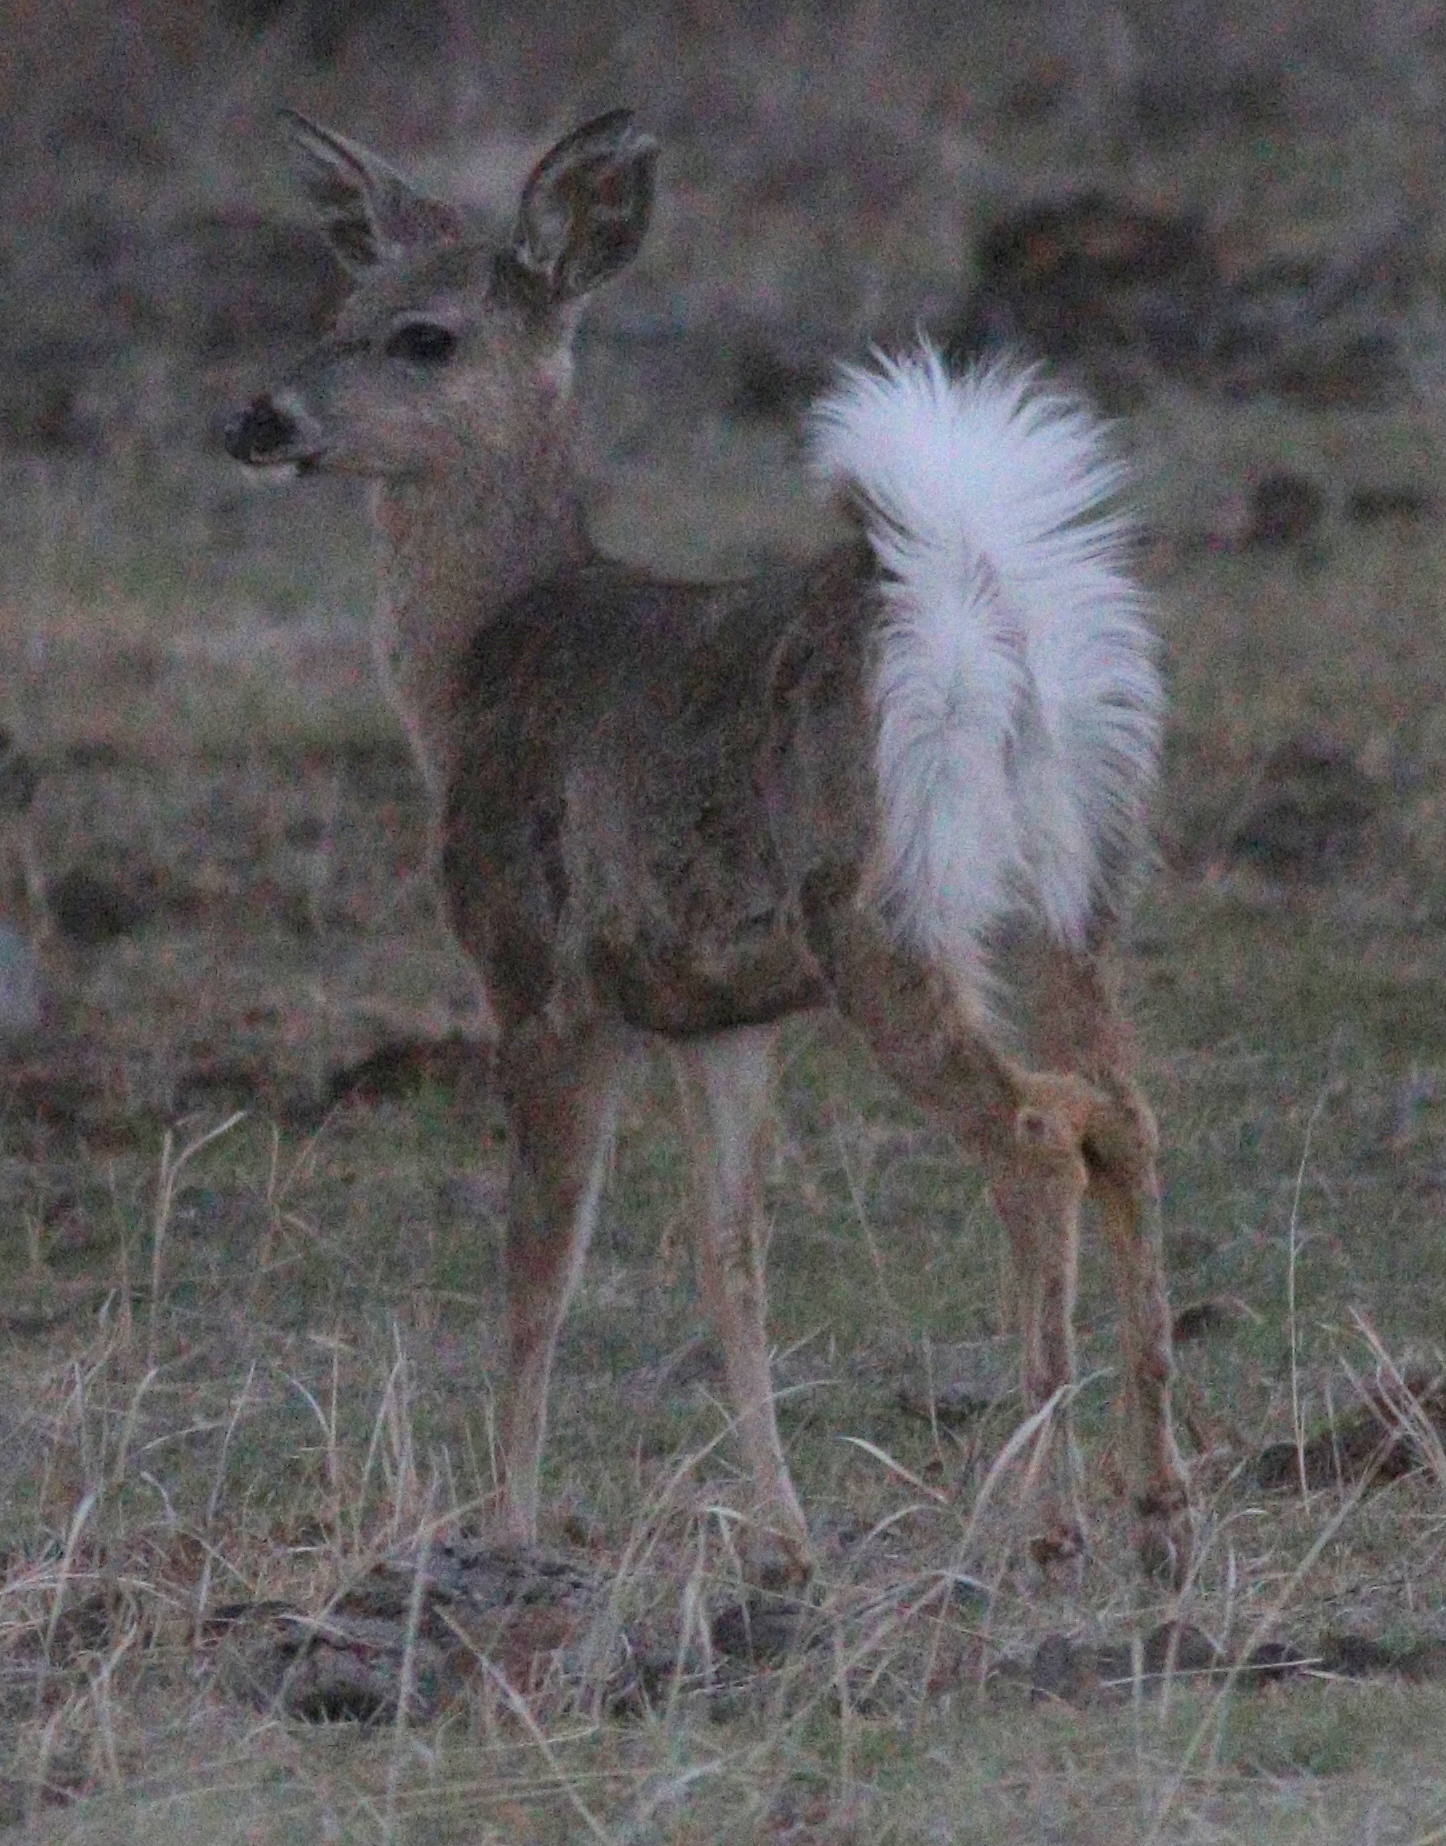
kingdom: Animalia
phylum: Chordata
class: Mammalia
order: Artiodactyla
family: Cervidae
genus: Odocoileus
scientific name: Odocoileus virginianus
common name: White-tailed deer
